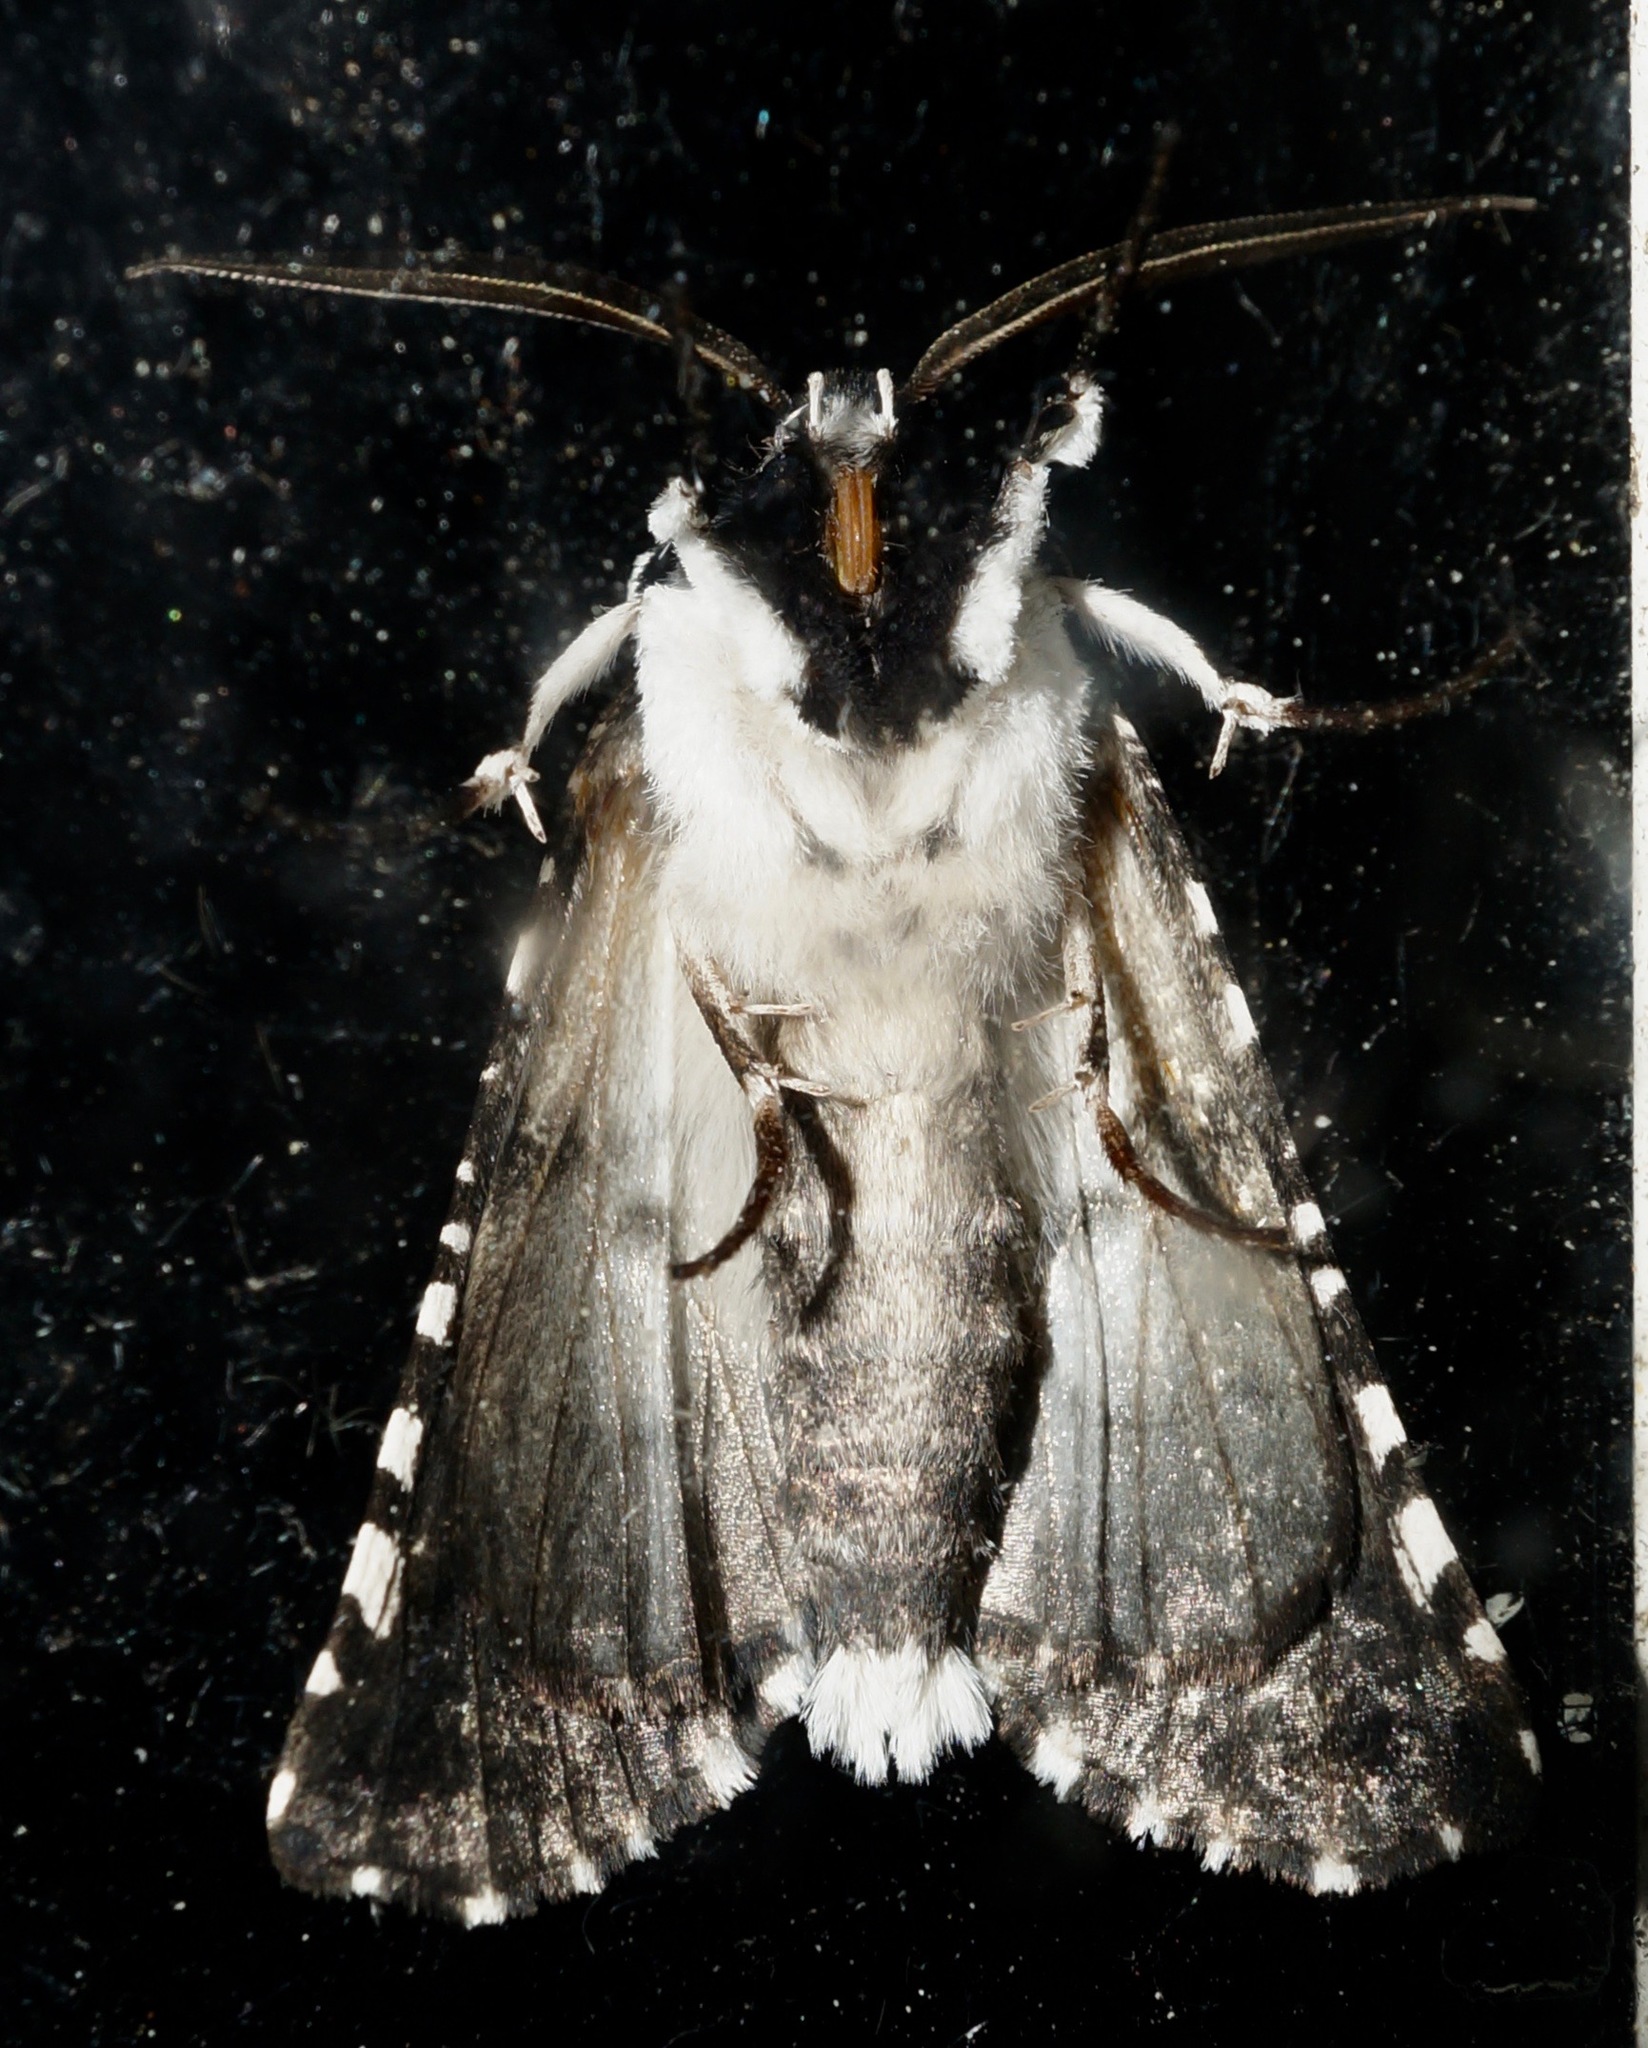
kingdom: Animalia
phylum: Arthropoda
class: Insecta
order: Lepidoptera
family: Geometridae
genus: Declana
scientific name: Declana
